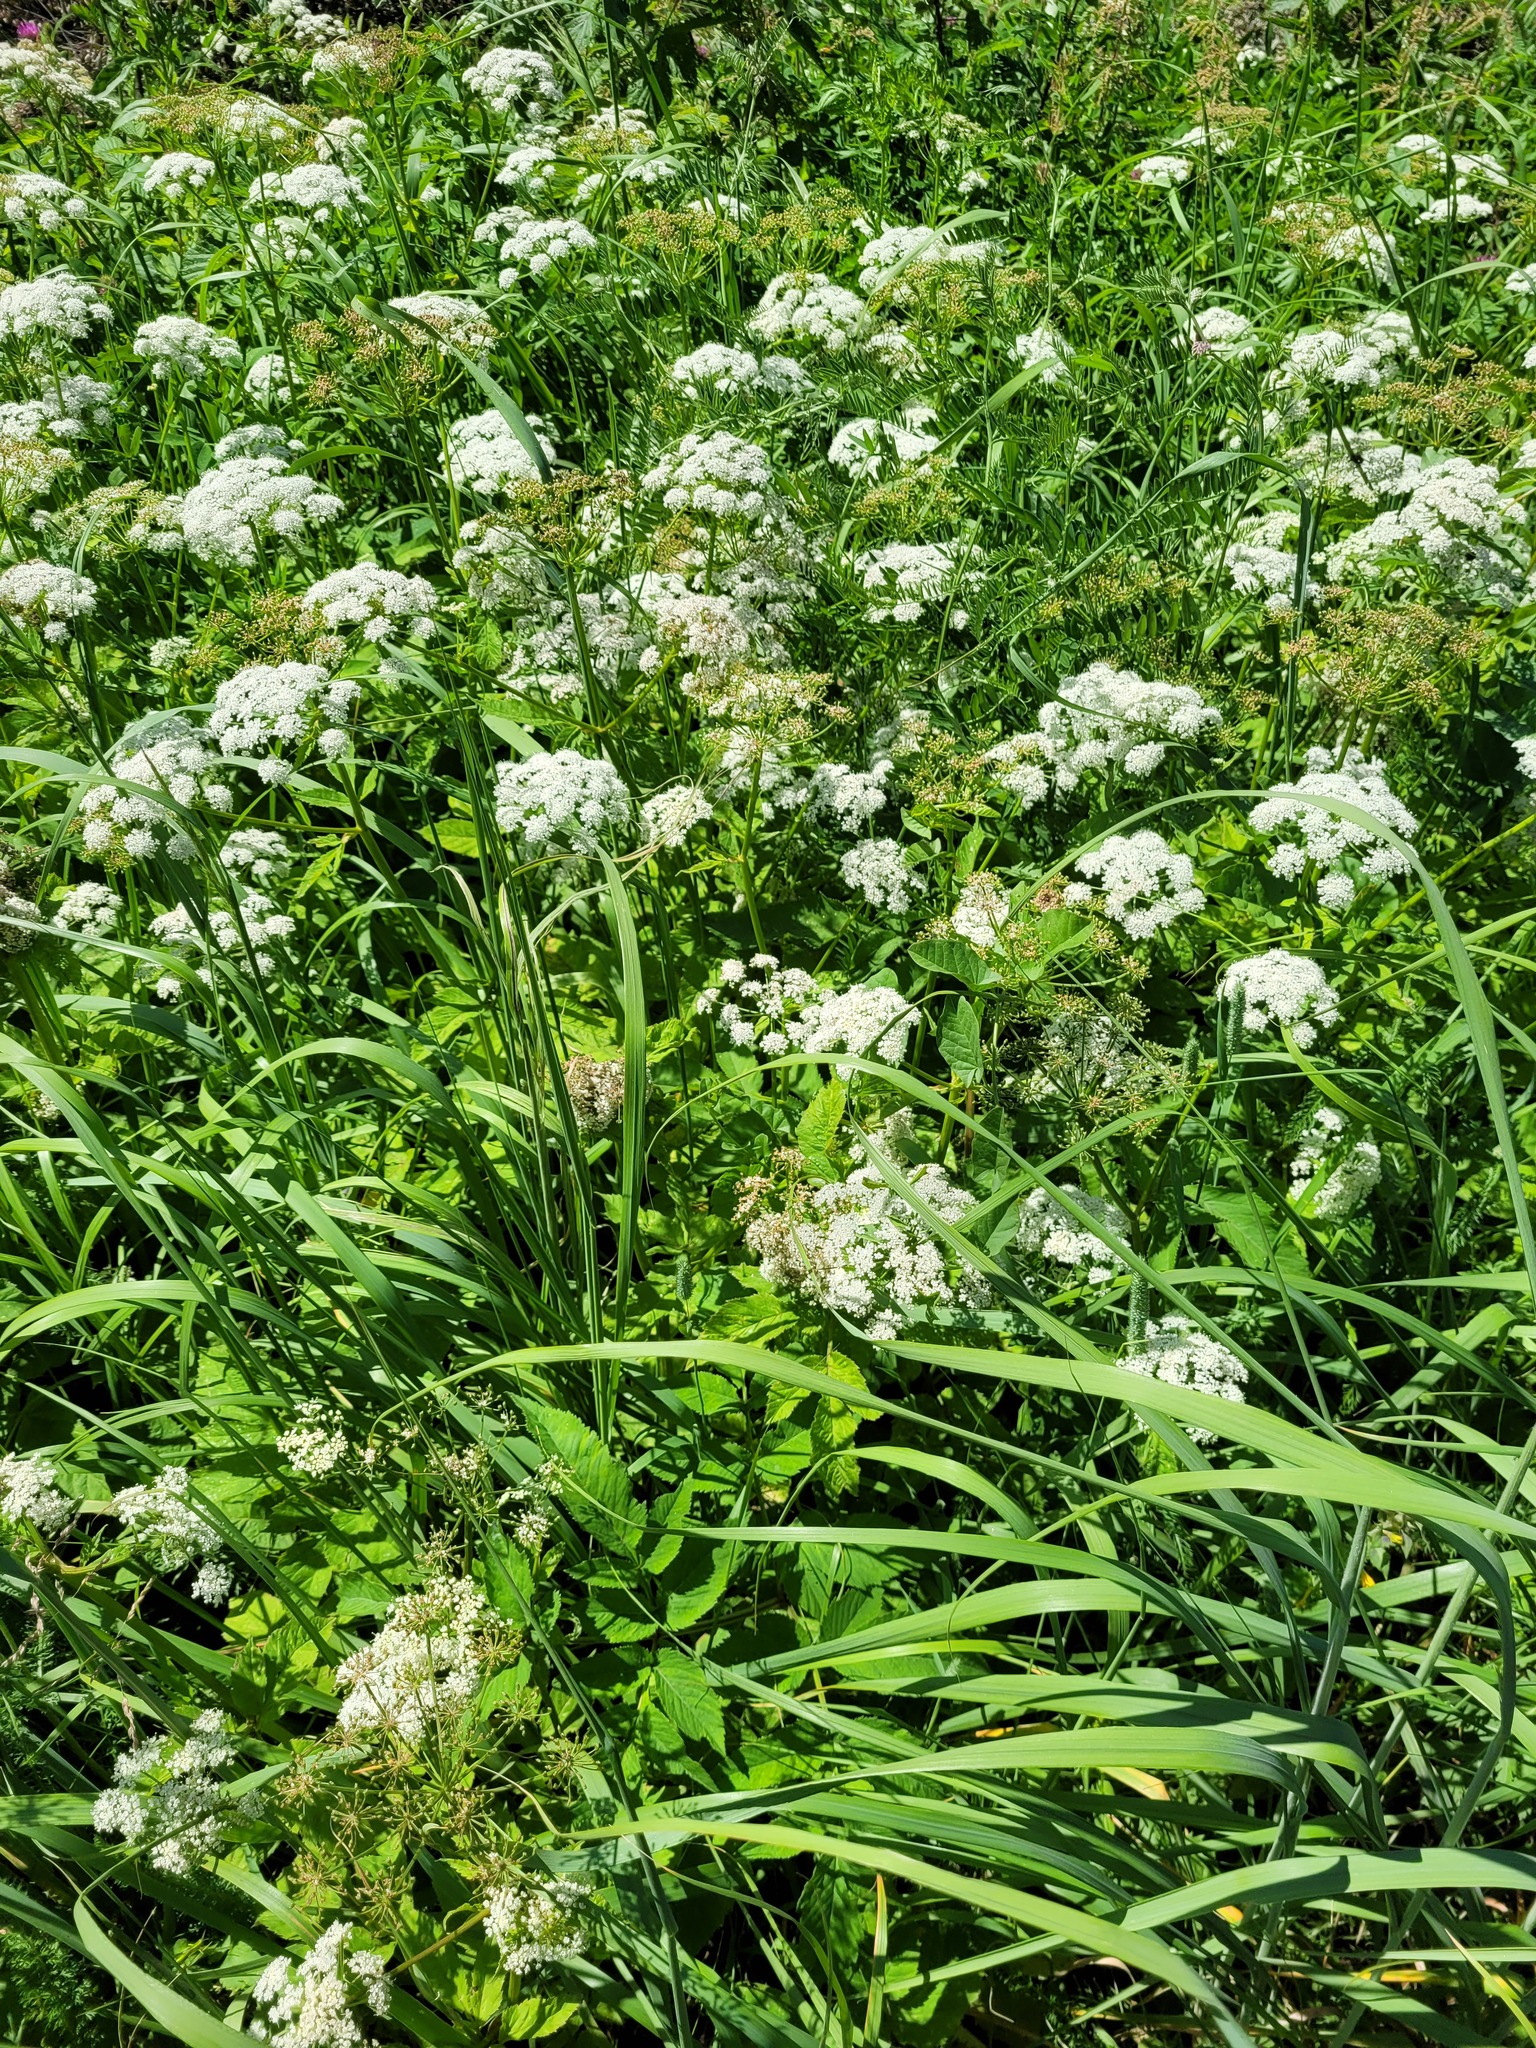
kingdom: Plantae
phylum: Tracheophyta
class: Magnoliopsida
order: Apiales
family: Apiaceae
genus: Aegopodium
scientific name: Aegopodium podagraria
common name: Ground-elder
